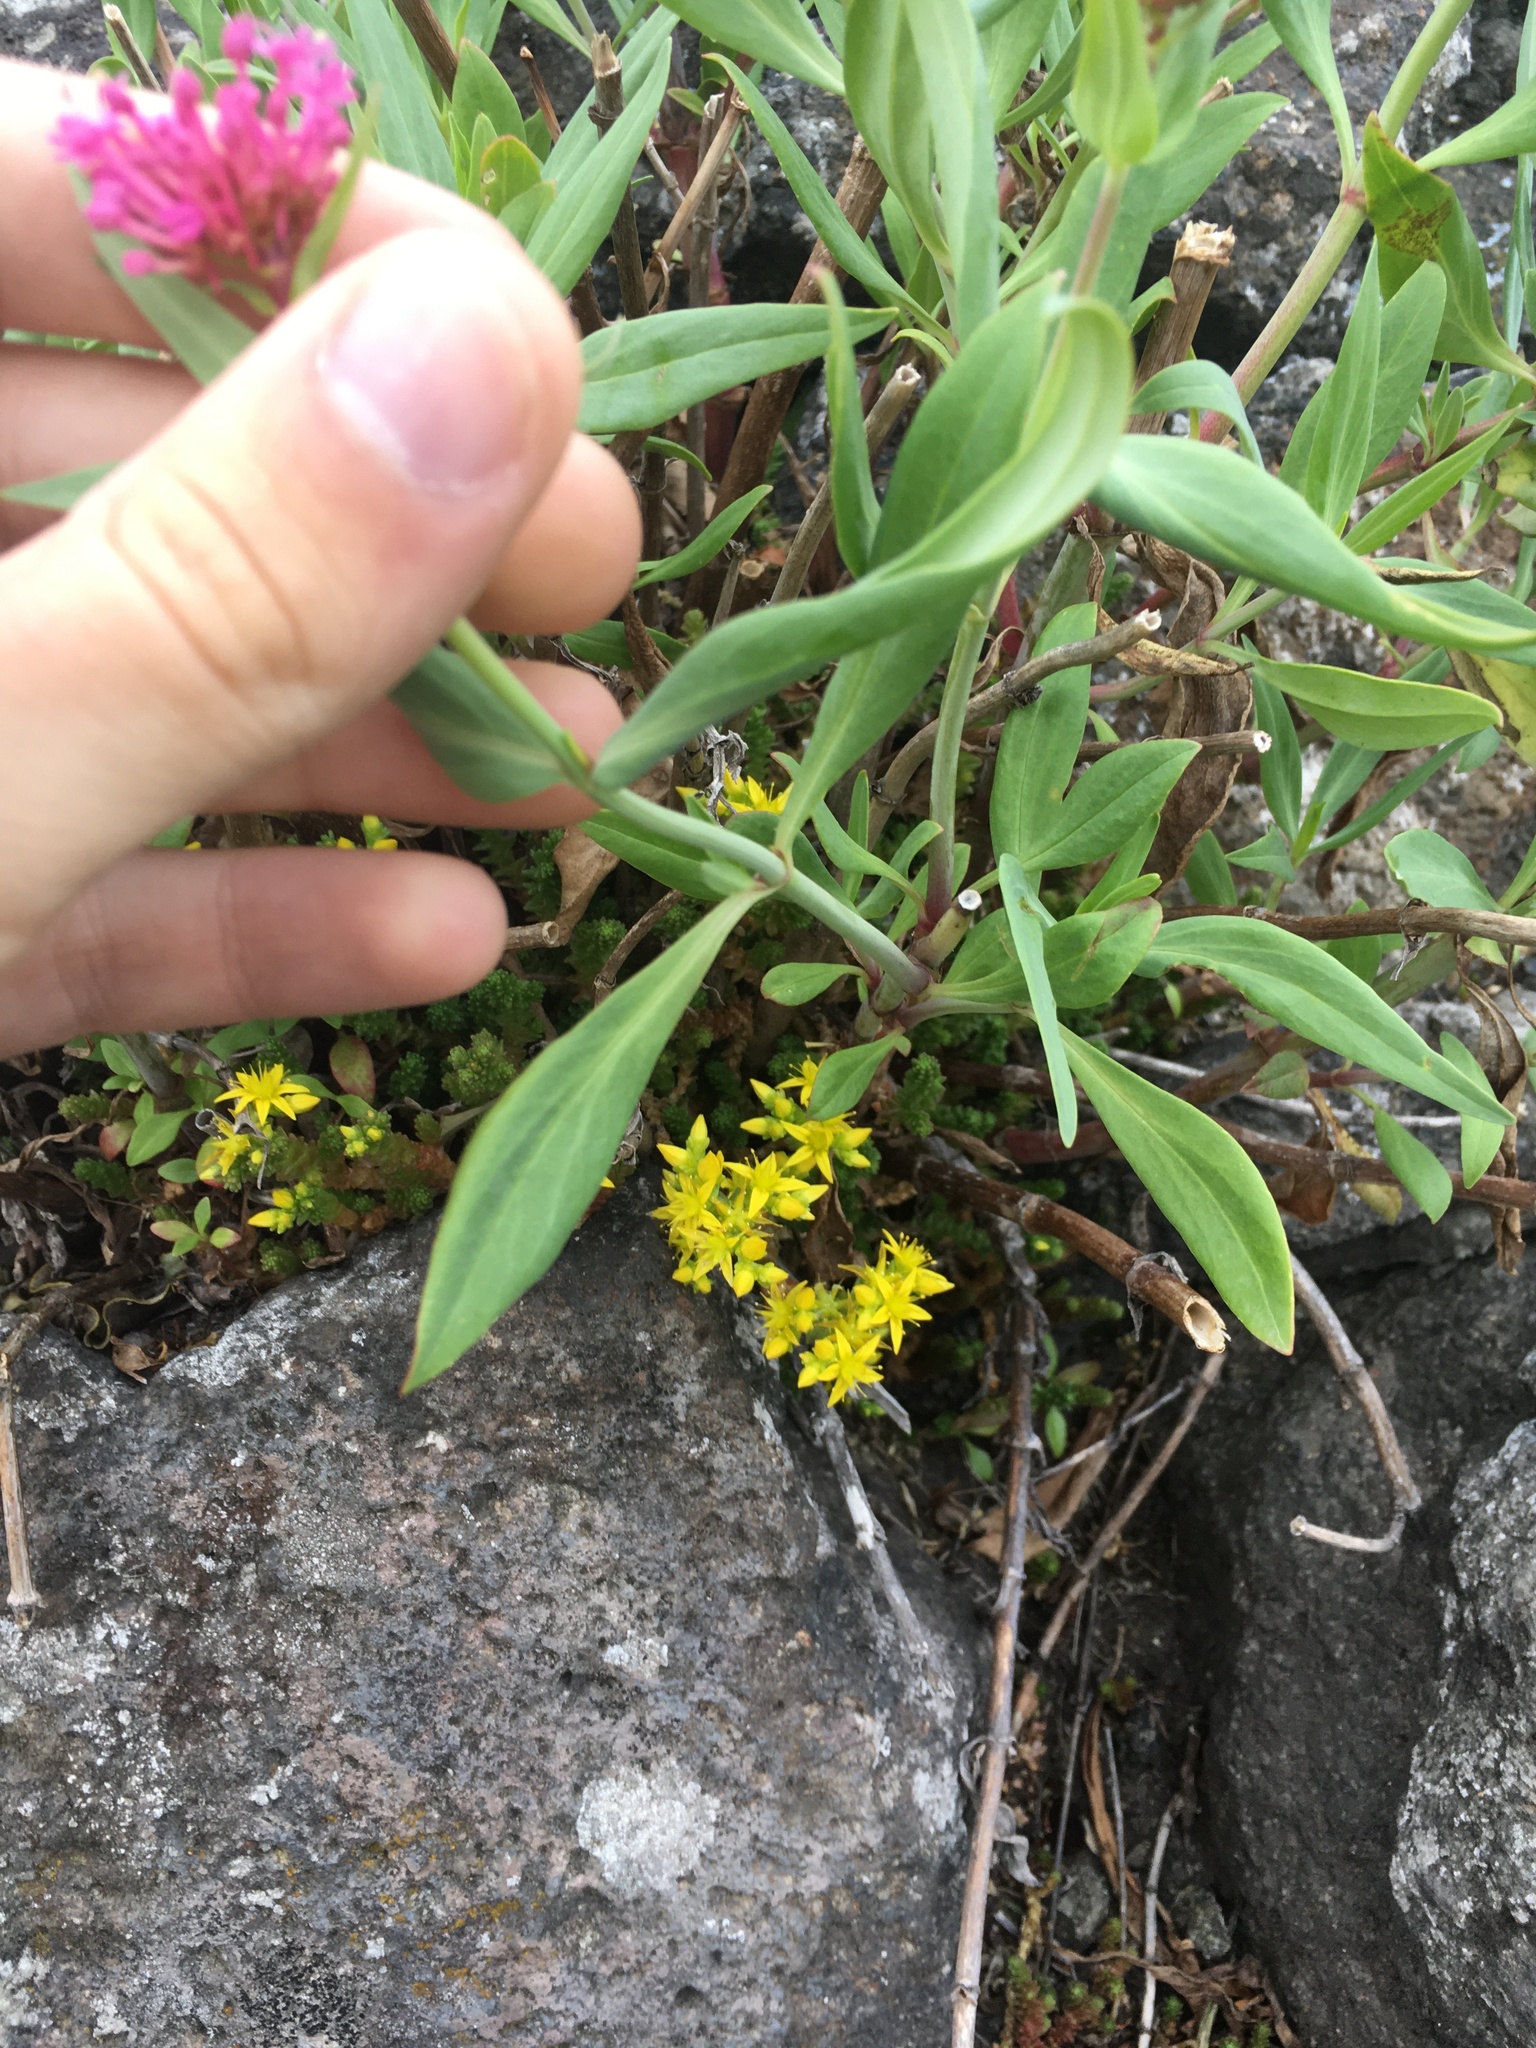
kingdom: Plantae
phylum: Tracheophyta
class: Magnoliopsida
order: Dipsacales
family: Caprifoliaceae
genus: Centranthus
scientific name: Centranthus ruber
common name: Red valerian
